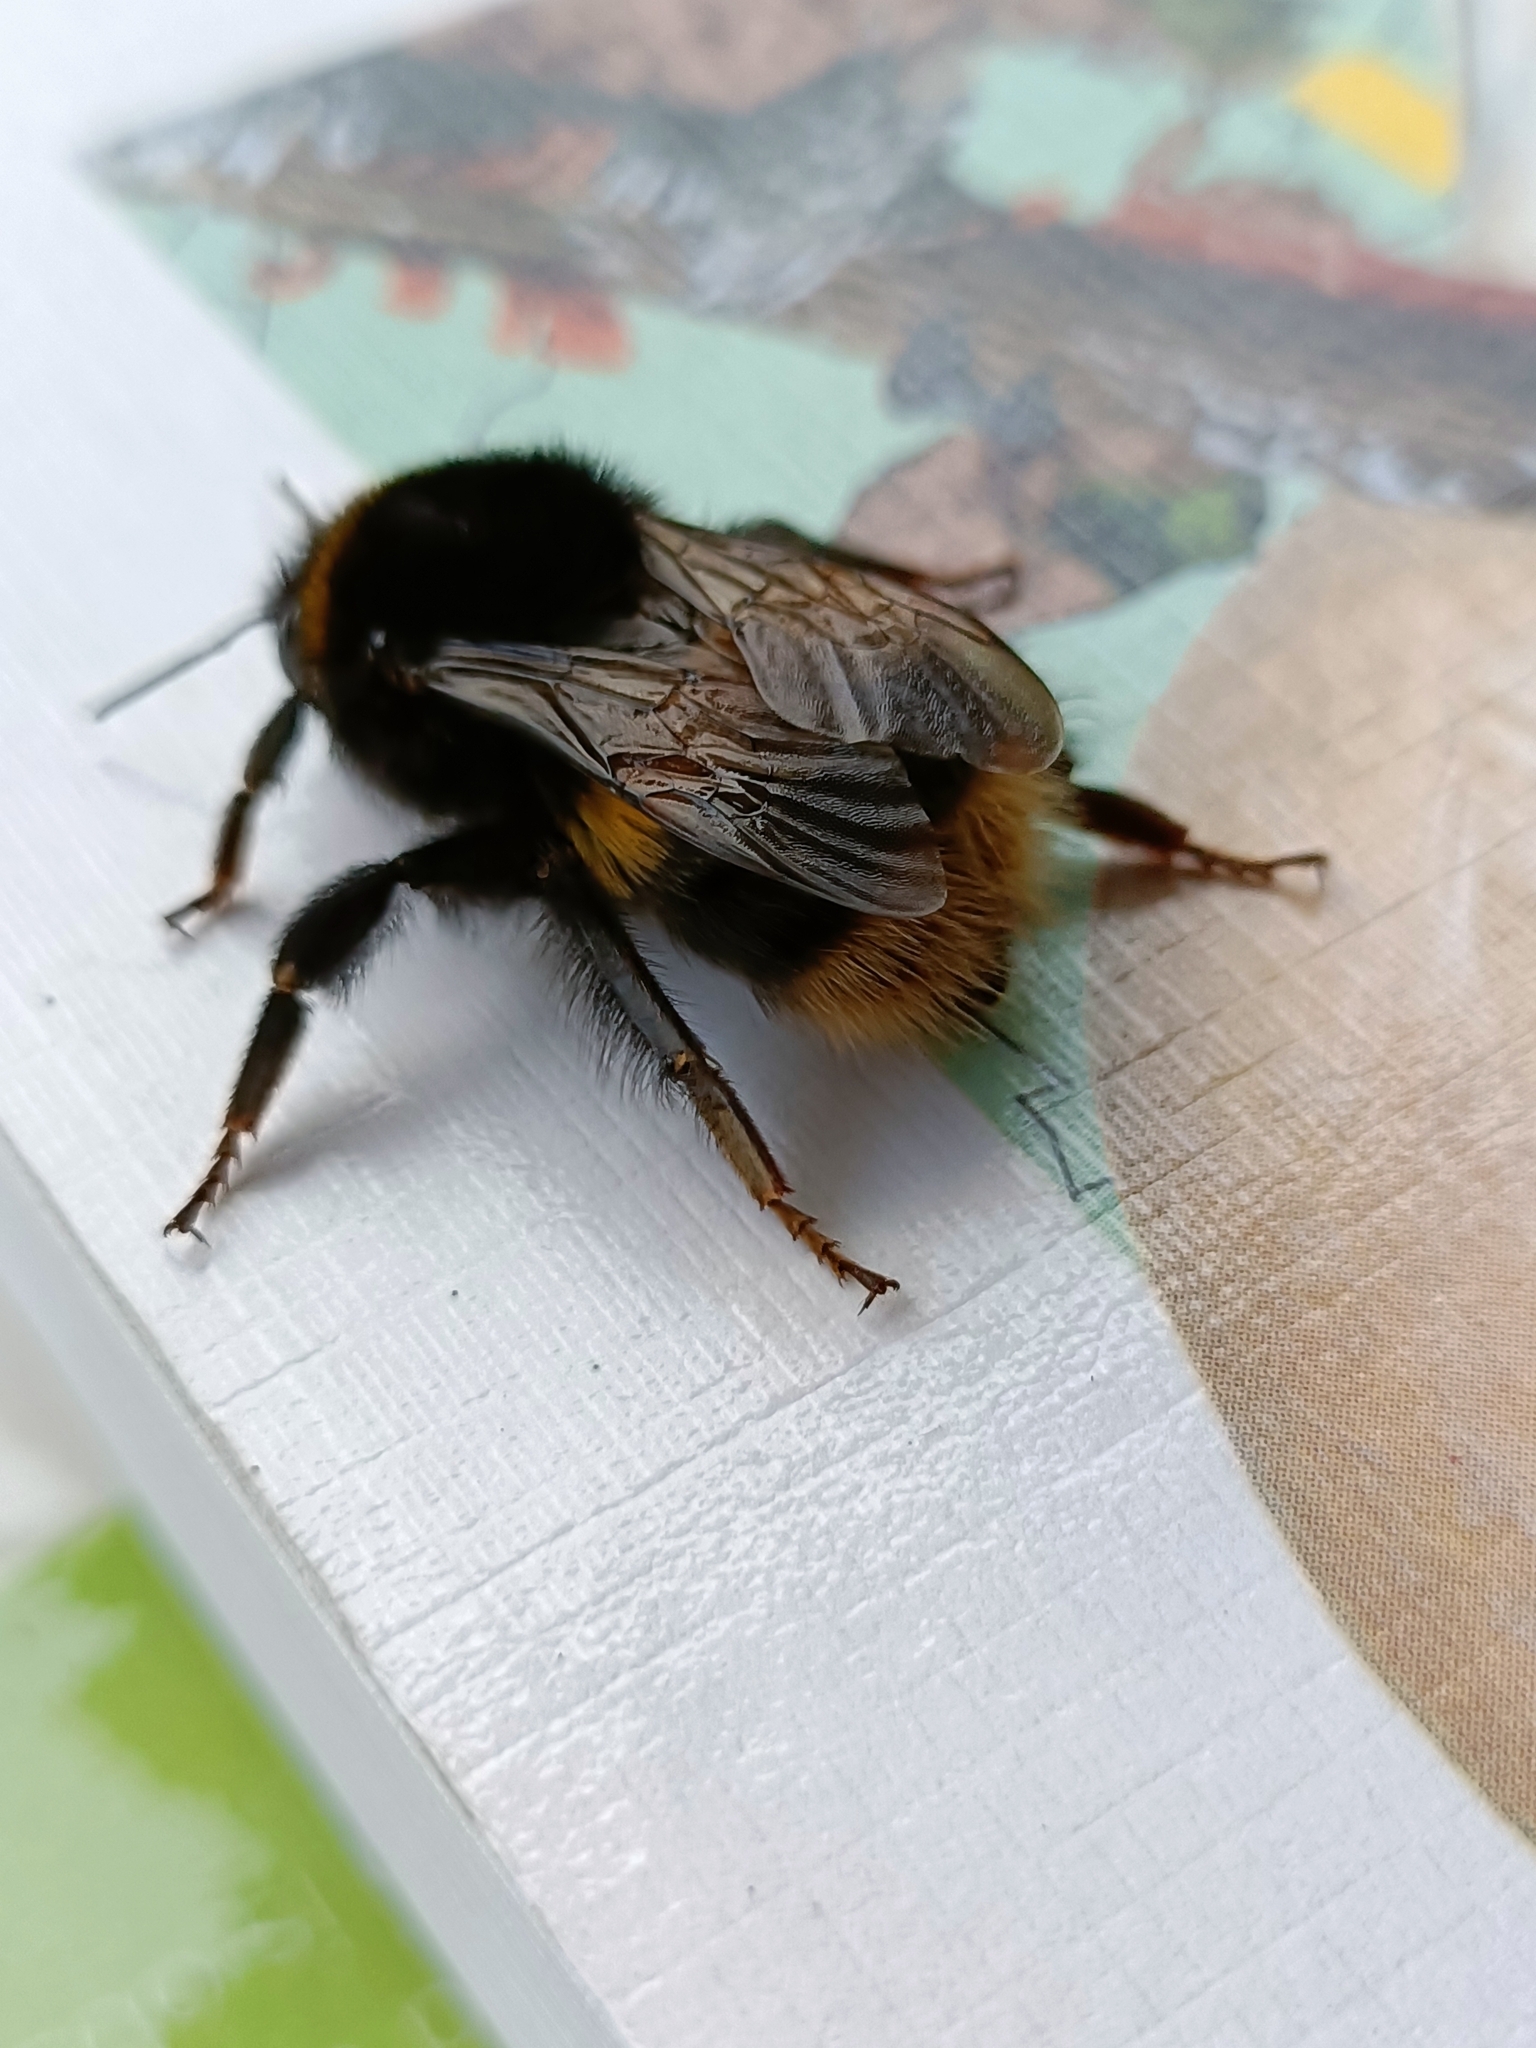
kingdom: Animalia
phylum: Arthropoda
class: Insecta
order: Hymenoptera
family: Apidae
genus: Bombus
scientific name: Bombus terrestris
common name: Buff-tailed bumblebee
